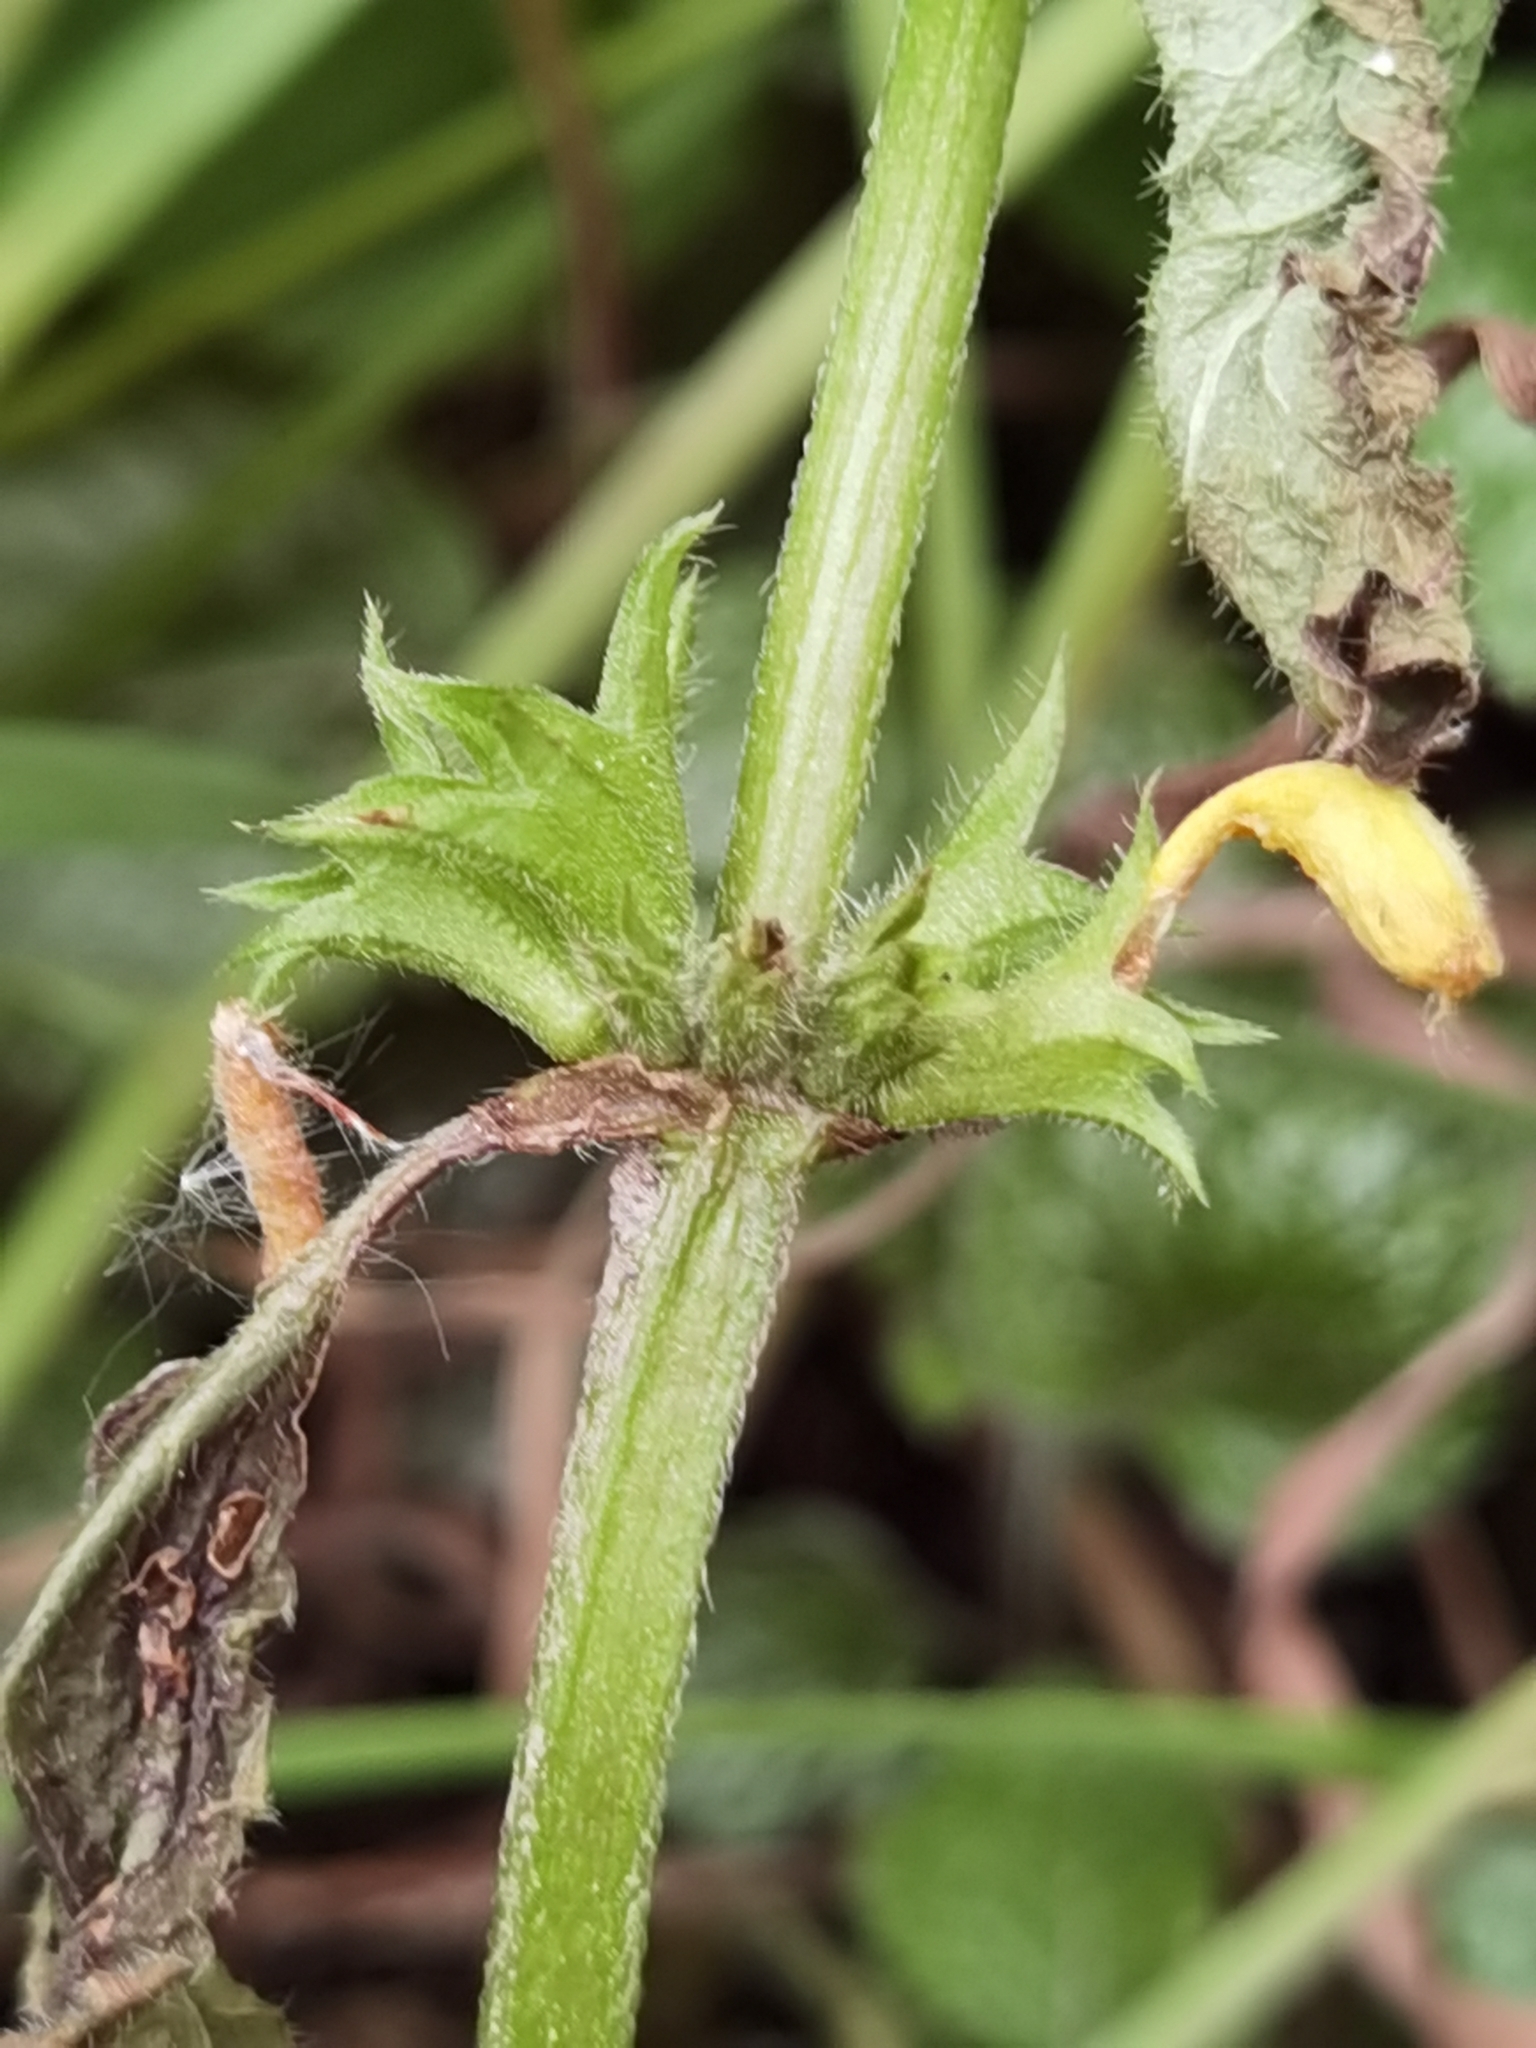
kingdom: Plantae
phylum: Tracheophyta
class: Magnoliopsida
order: Lamiales
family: Lamiaceae
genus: Lamium
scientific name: Lamium galeobdolon
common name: Yellow archangel
